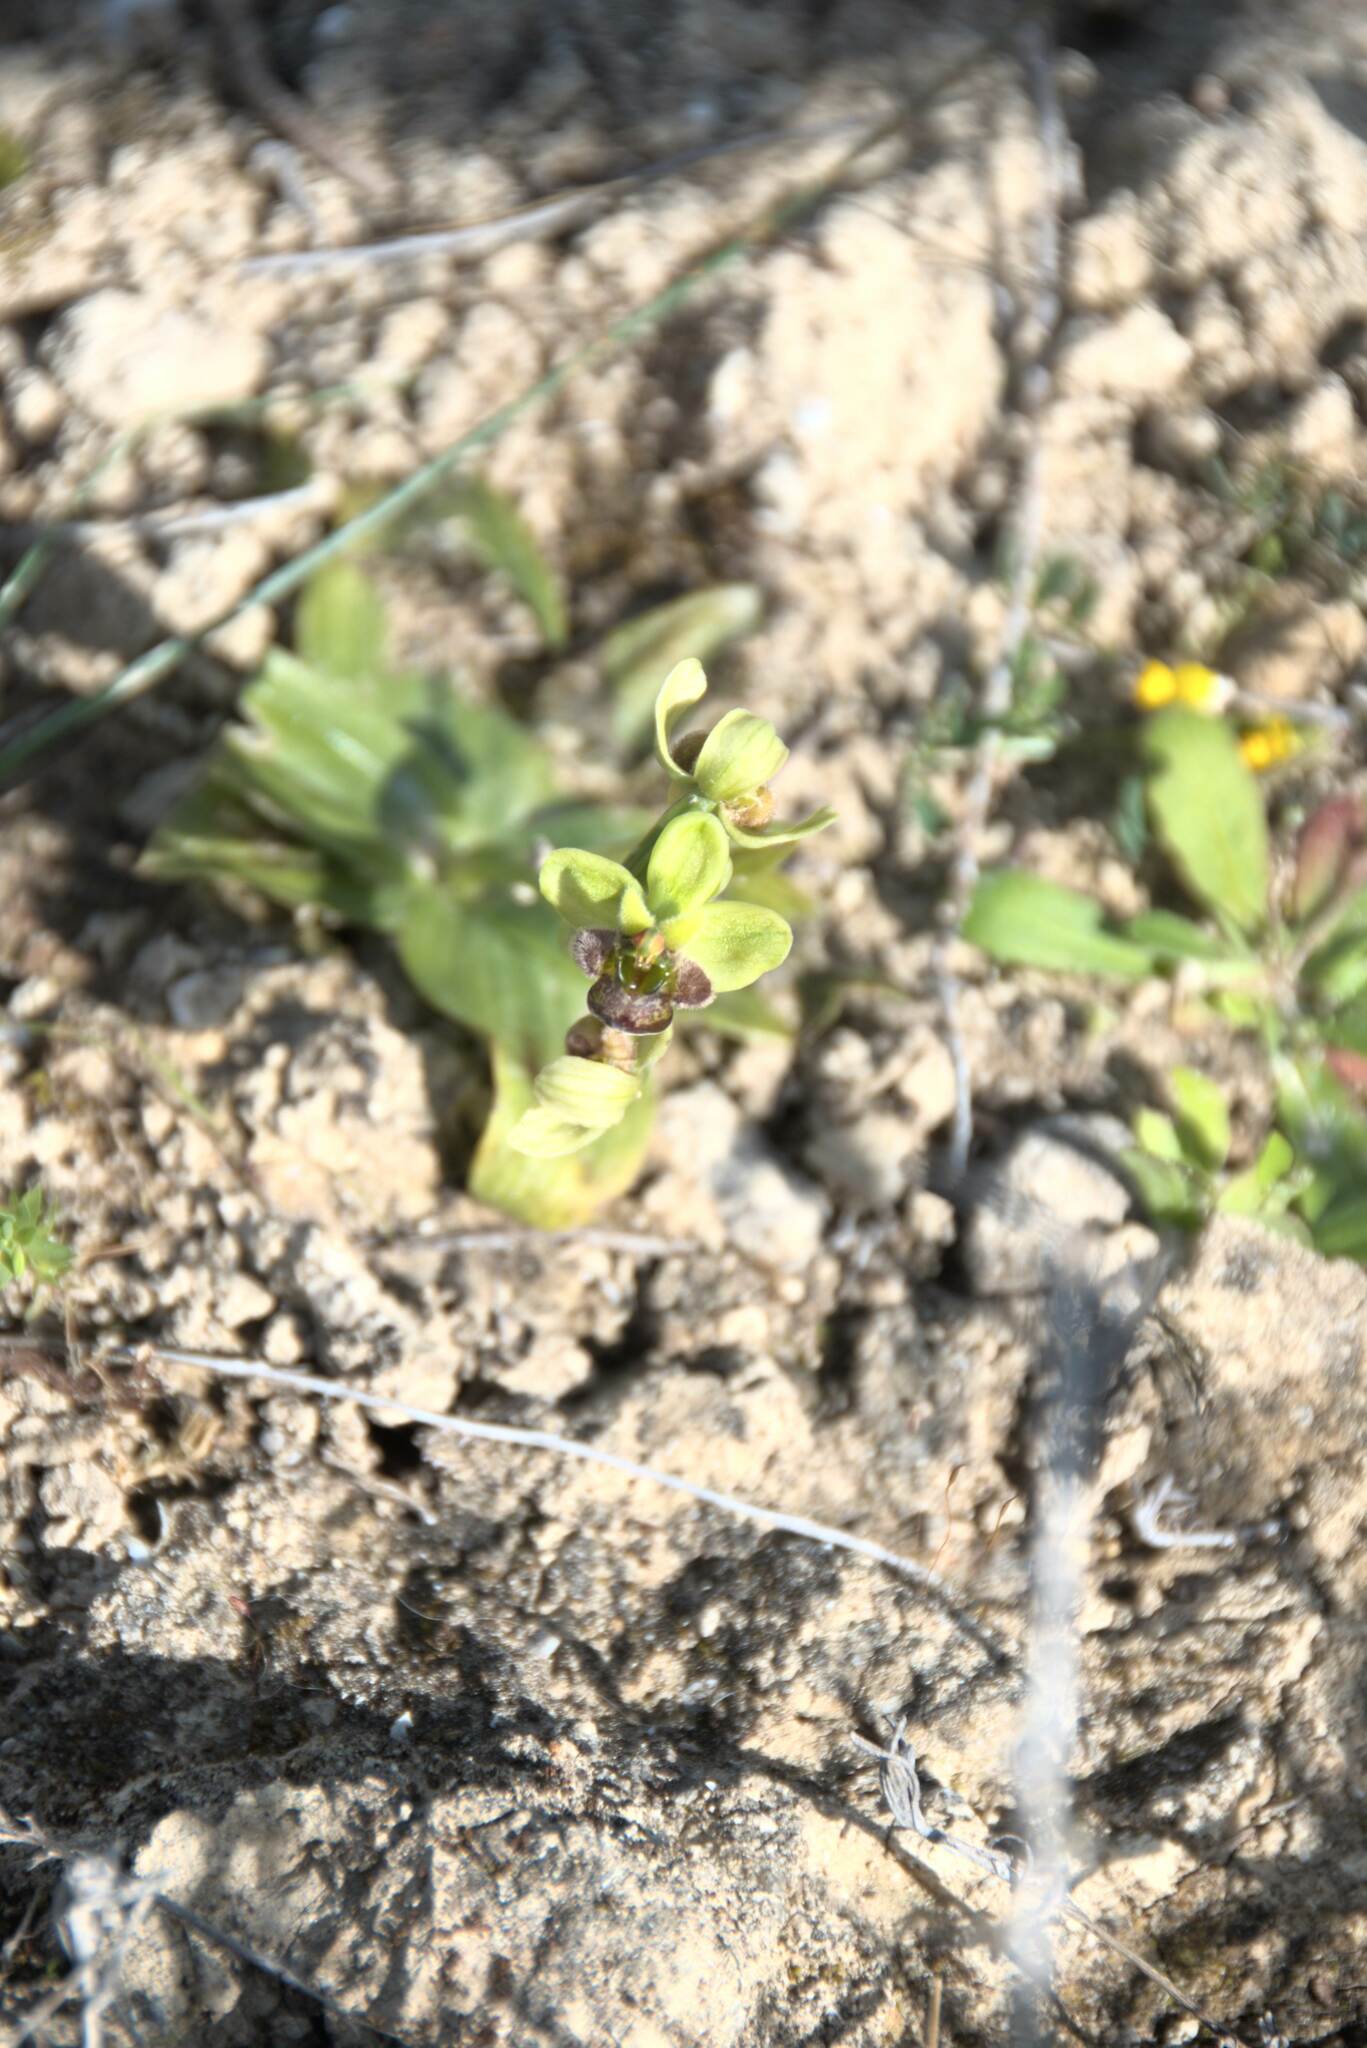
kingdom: Plantae
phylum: Tracheophyta
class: Liliopsida
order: Asparagales
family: Orchidaceae
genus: Ophrys
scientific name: Ophrys bombyliflora
